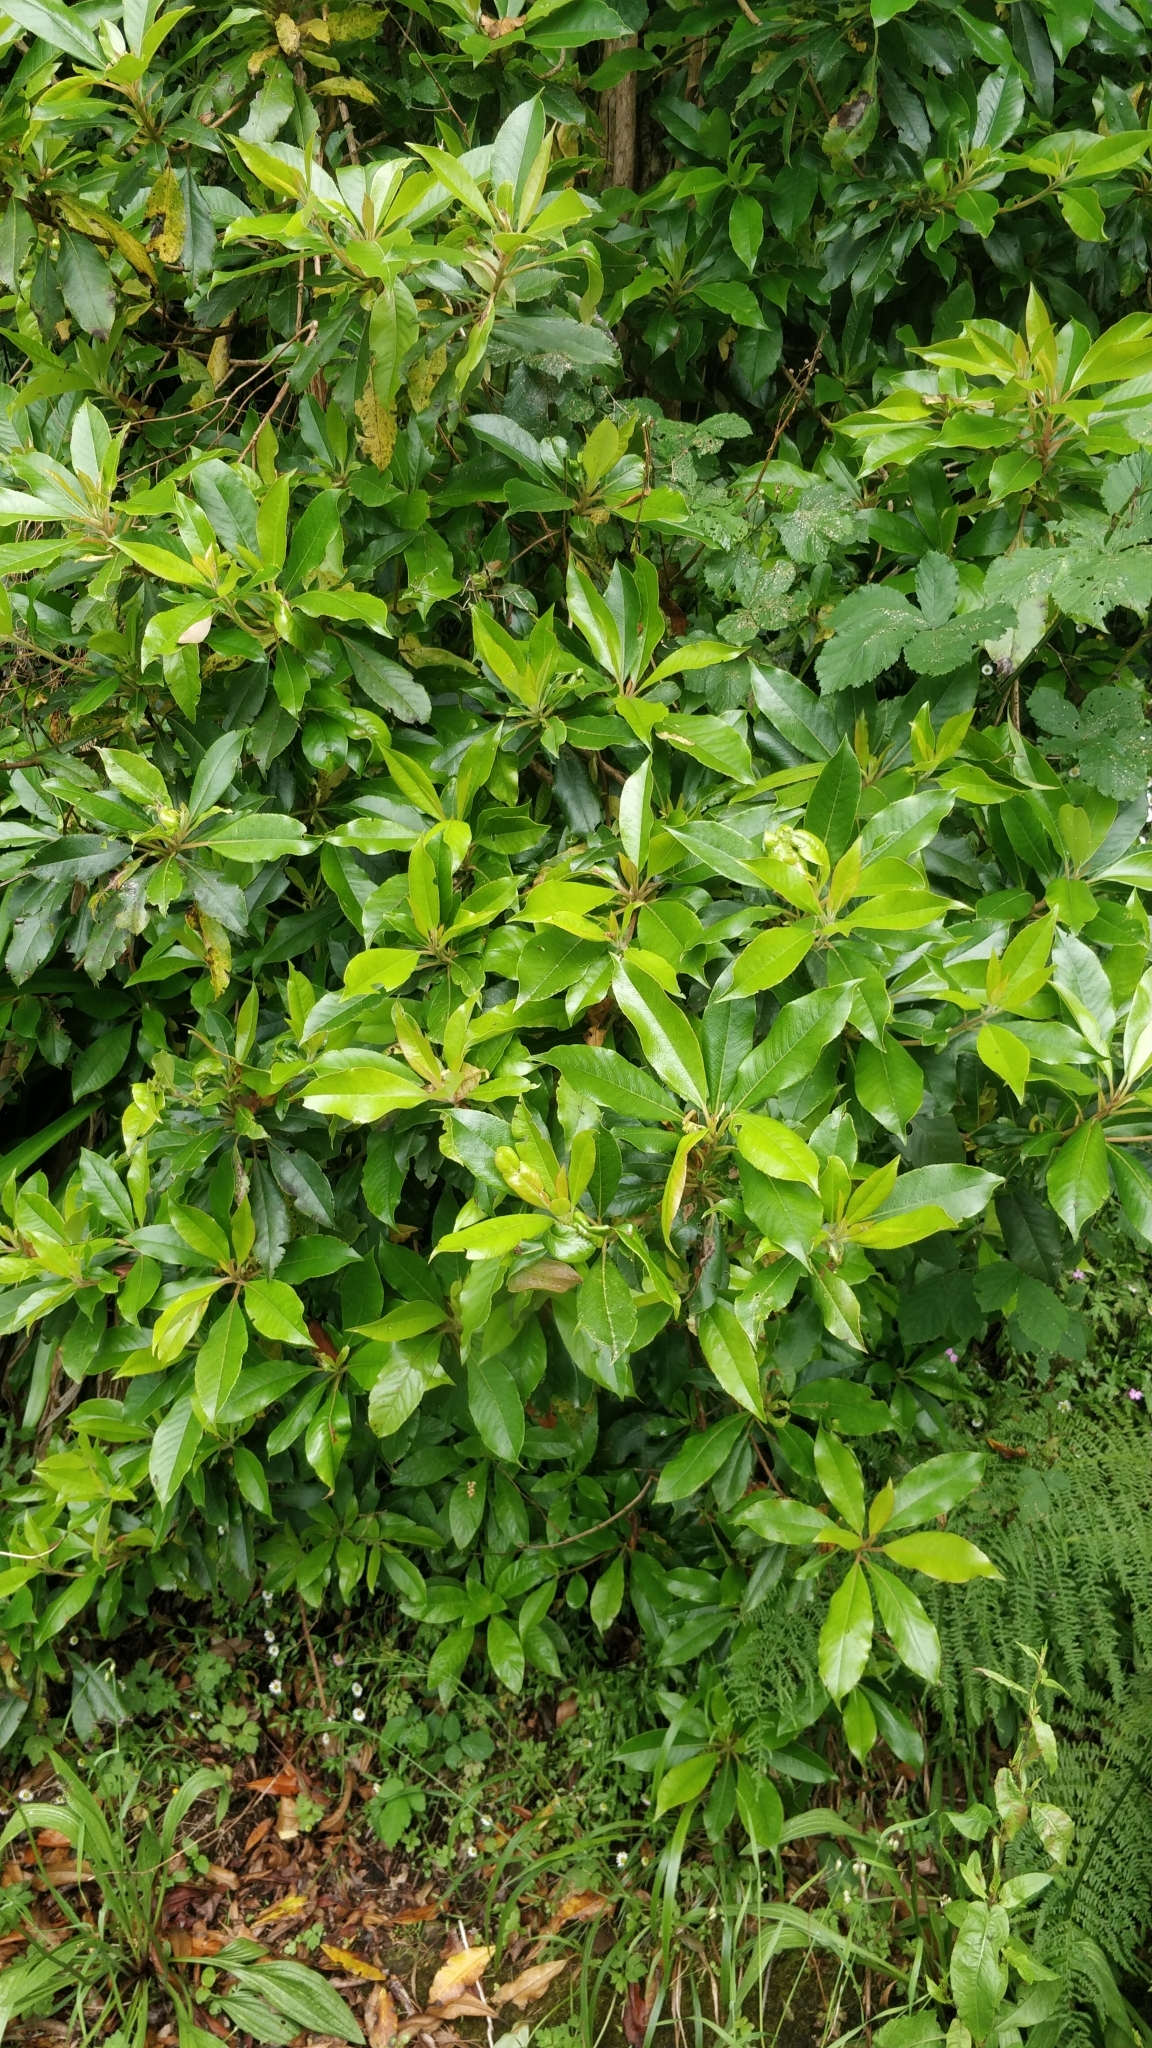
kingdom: Plantae
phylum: Tracheophyta
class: Magnoliopsida
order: Ericales
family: Clethraceae
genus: Clethra
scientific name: Clethra arborea
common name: Lily-of-the-valley-tree
